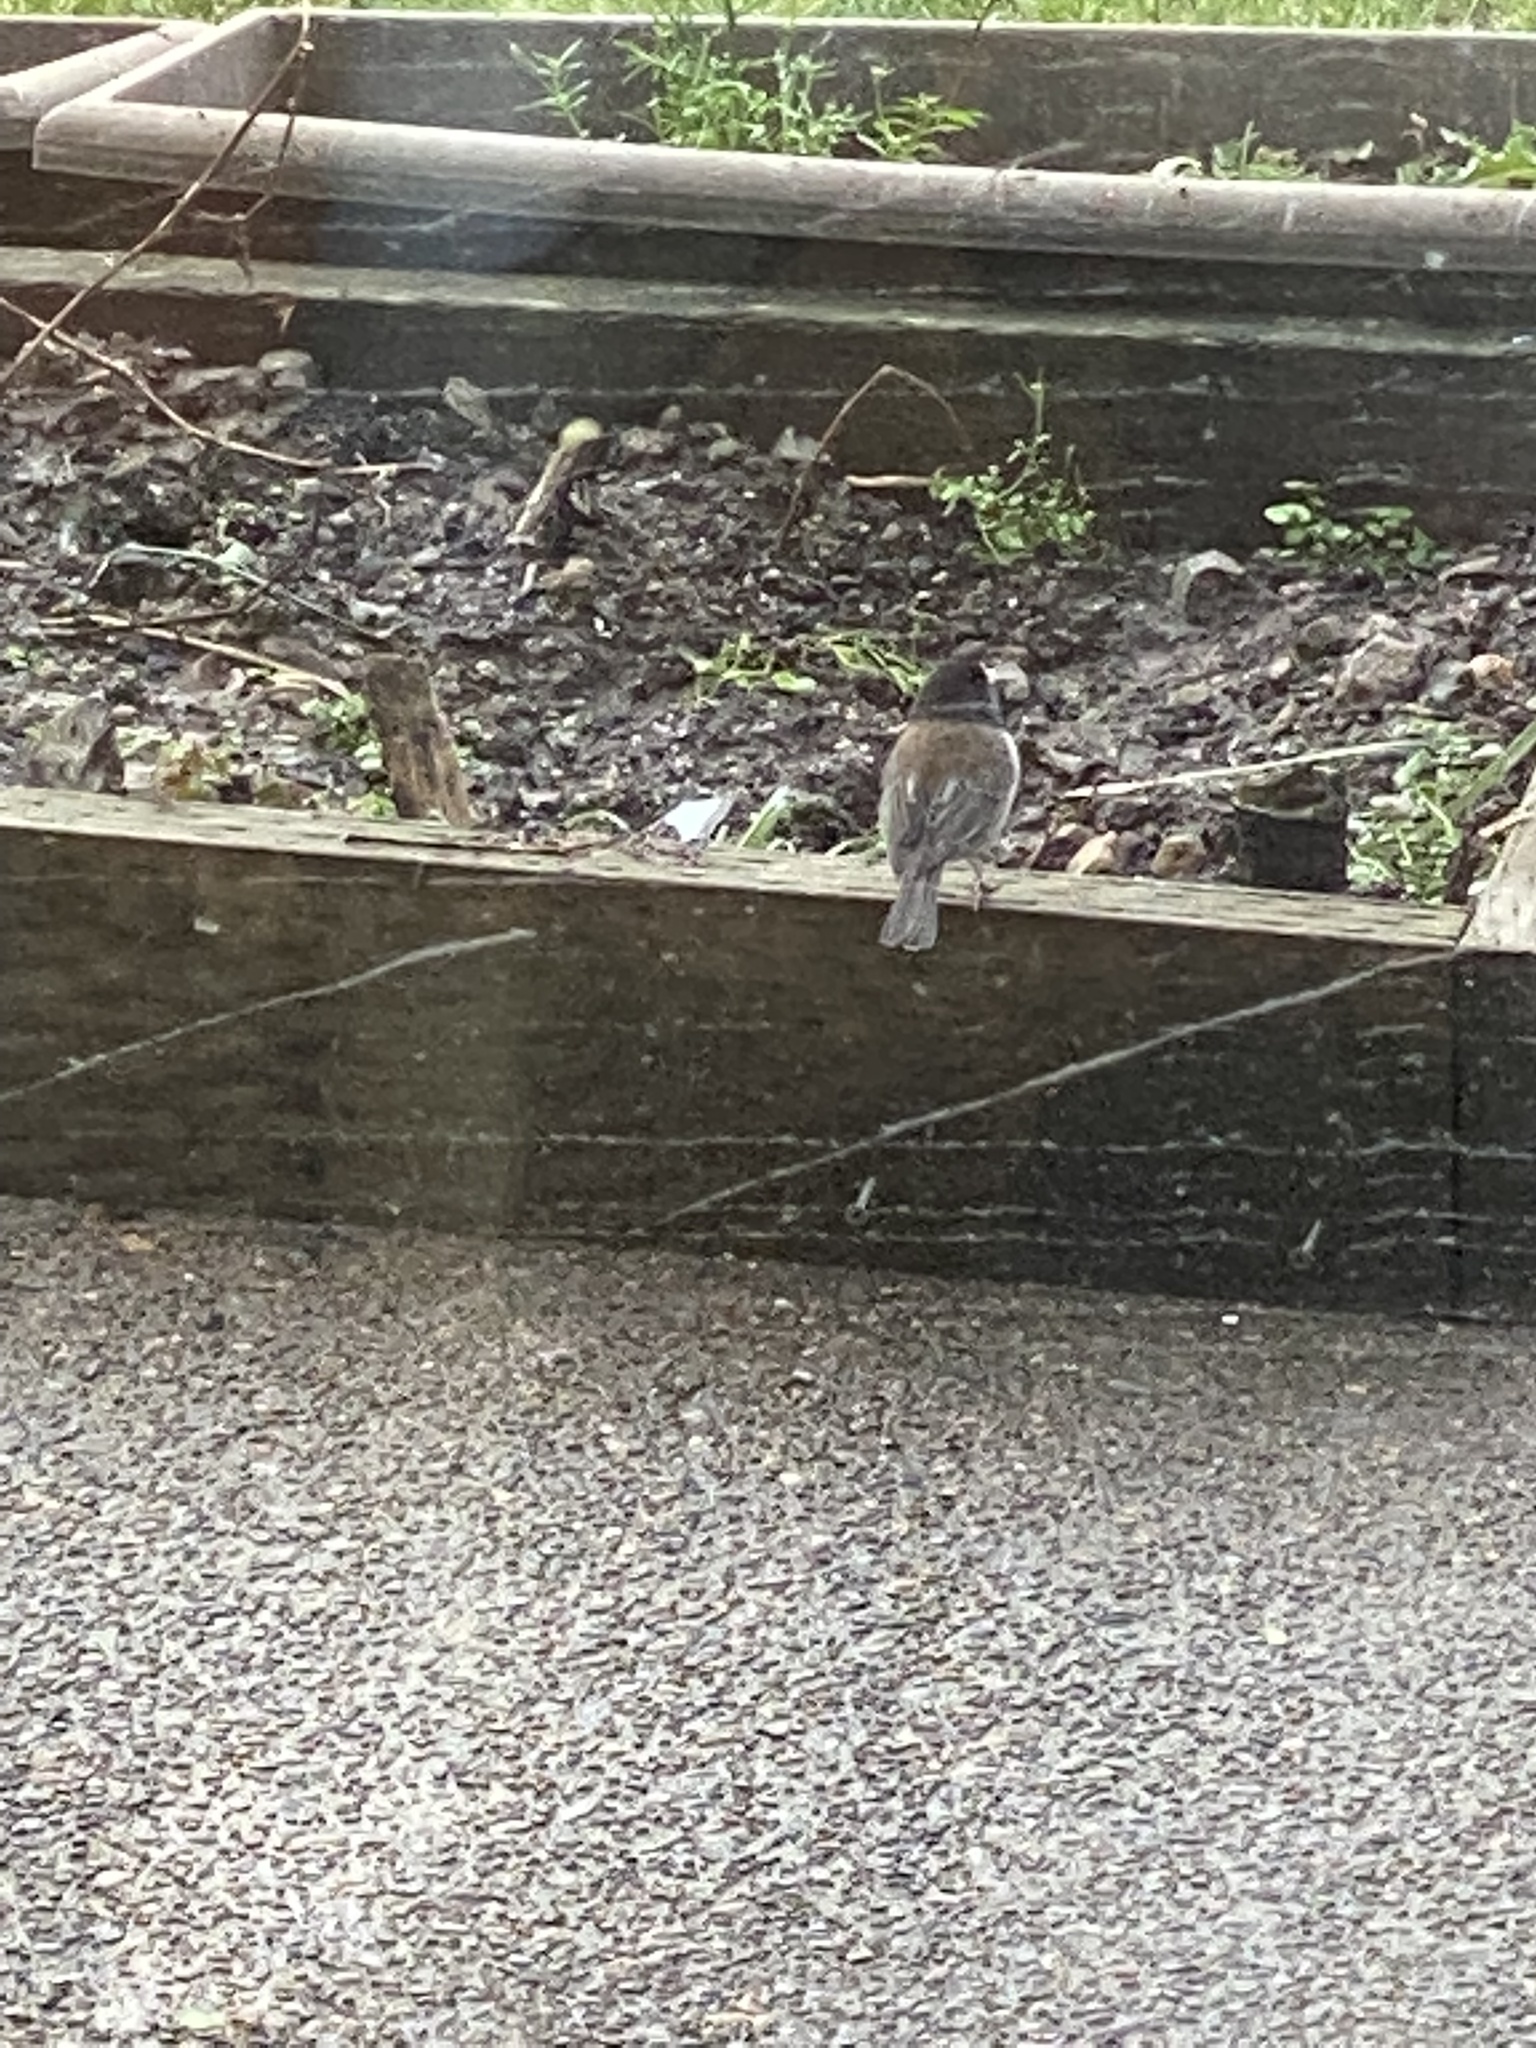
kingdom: Animalia
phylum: Chordata
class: Aves
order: Passeriformes
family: Passerellidae
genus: Junco
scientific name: Junco hyemalis
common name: Dark-eyed junco
